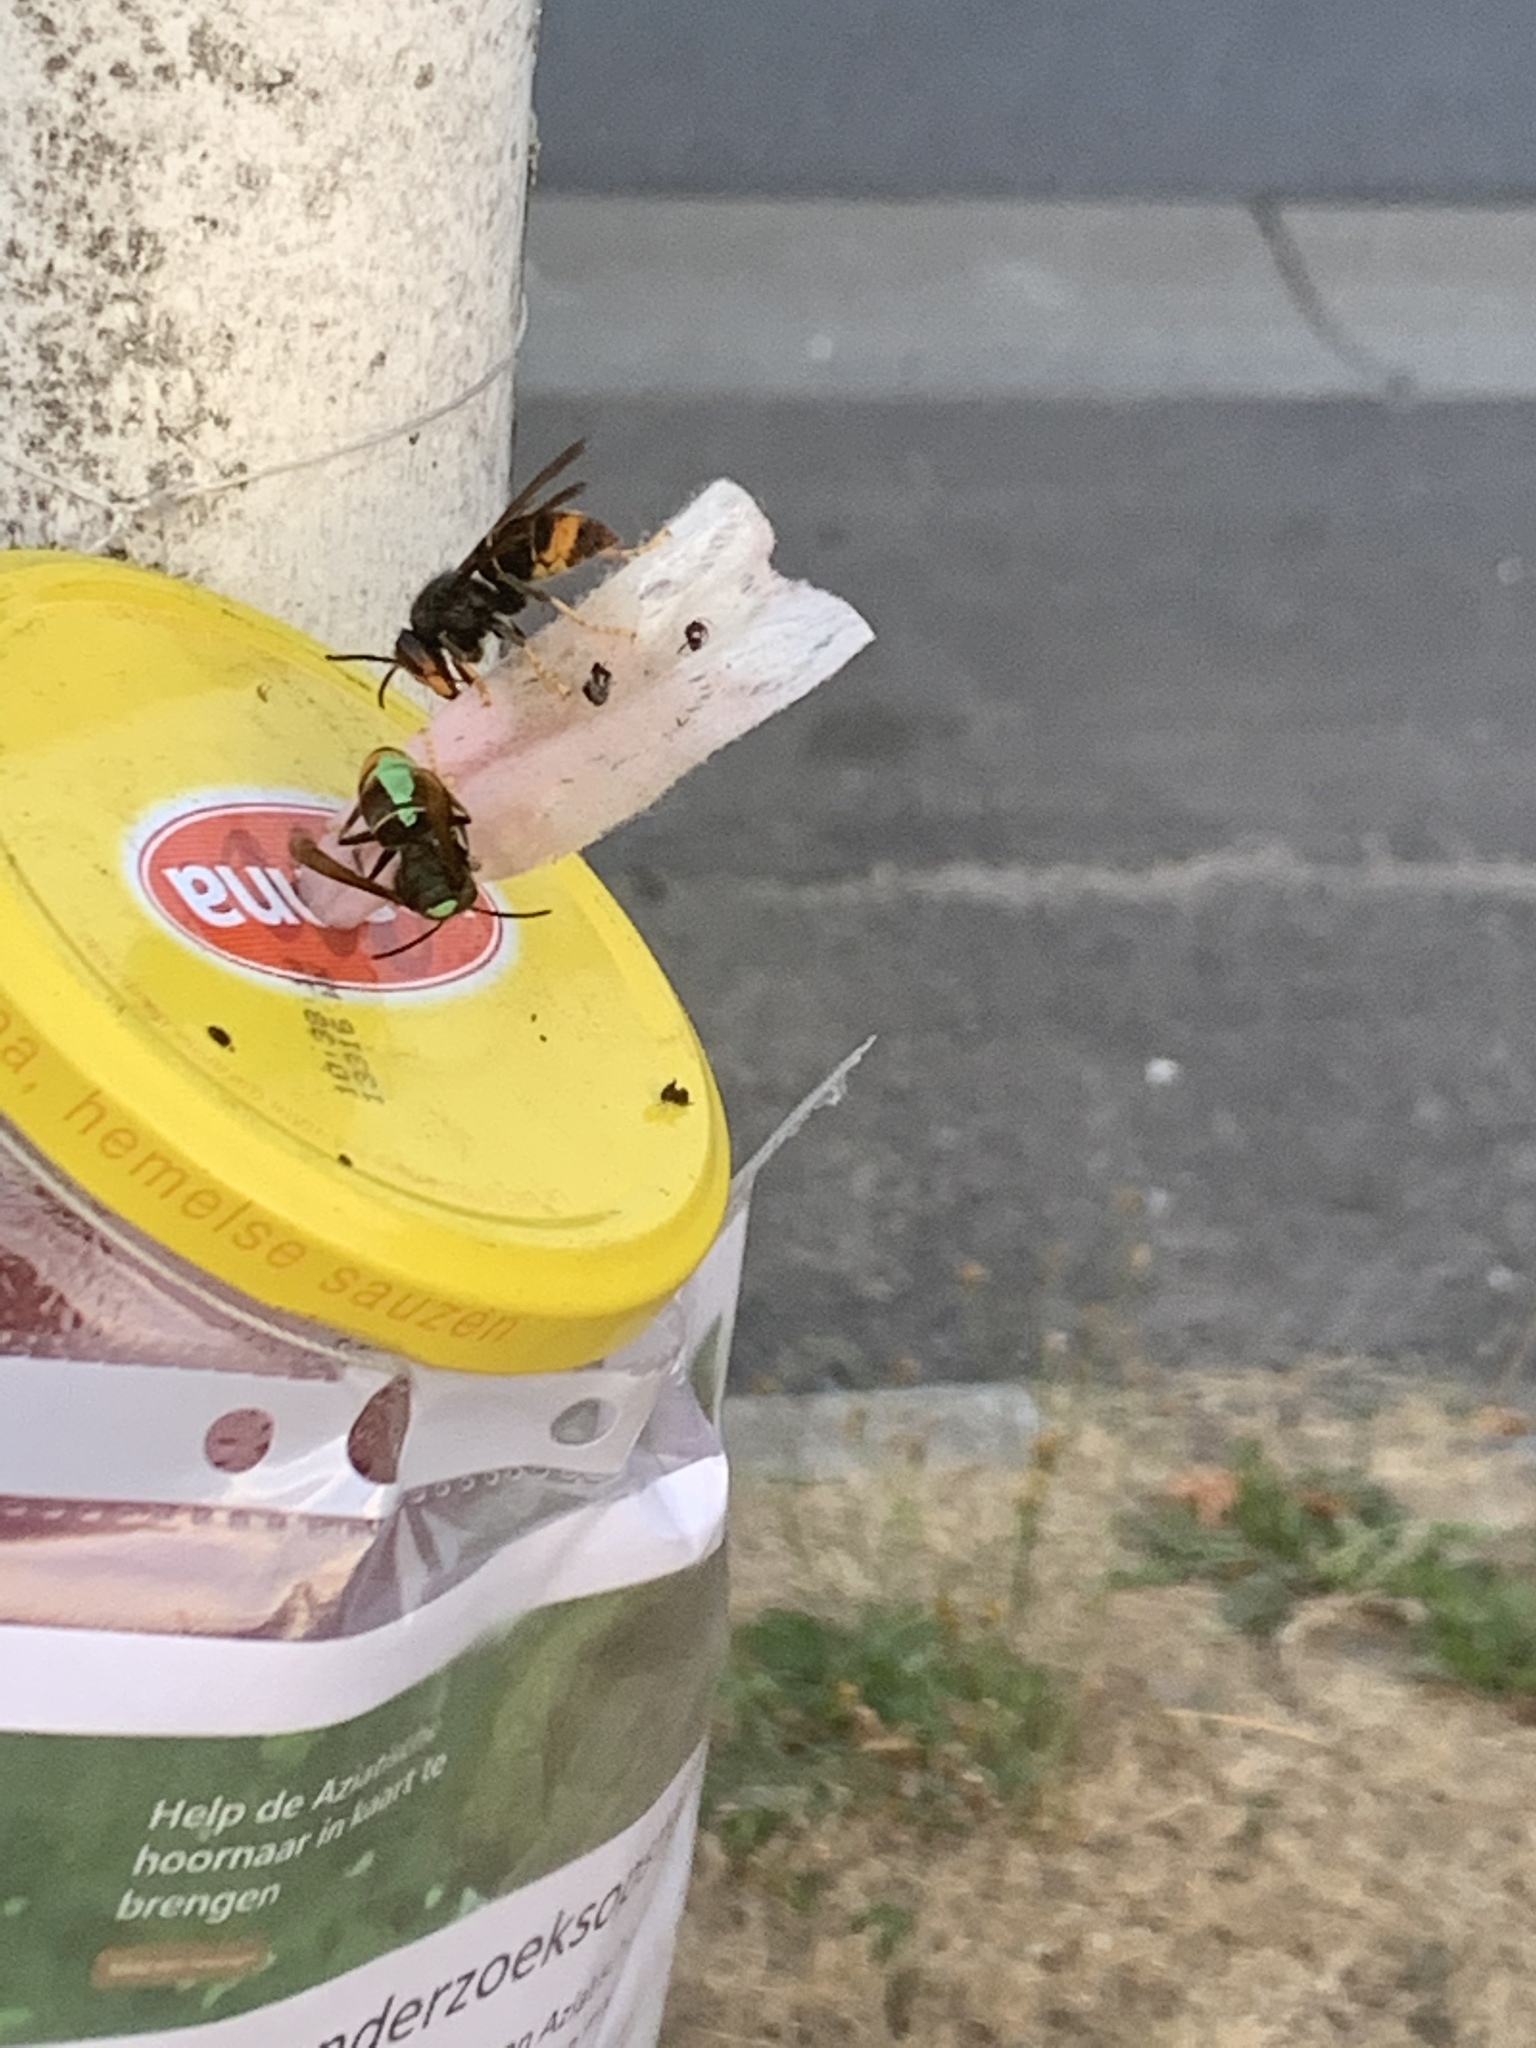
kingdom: Animalia
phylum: Arthropoda
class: Insecta
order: Hymenoptera
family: Vespidae
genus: Vespa
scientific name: Vespa velutina
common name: Asian hornet
